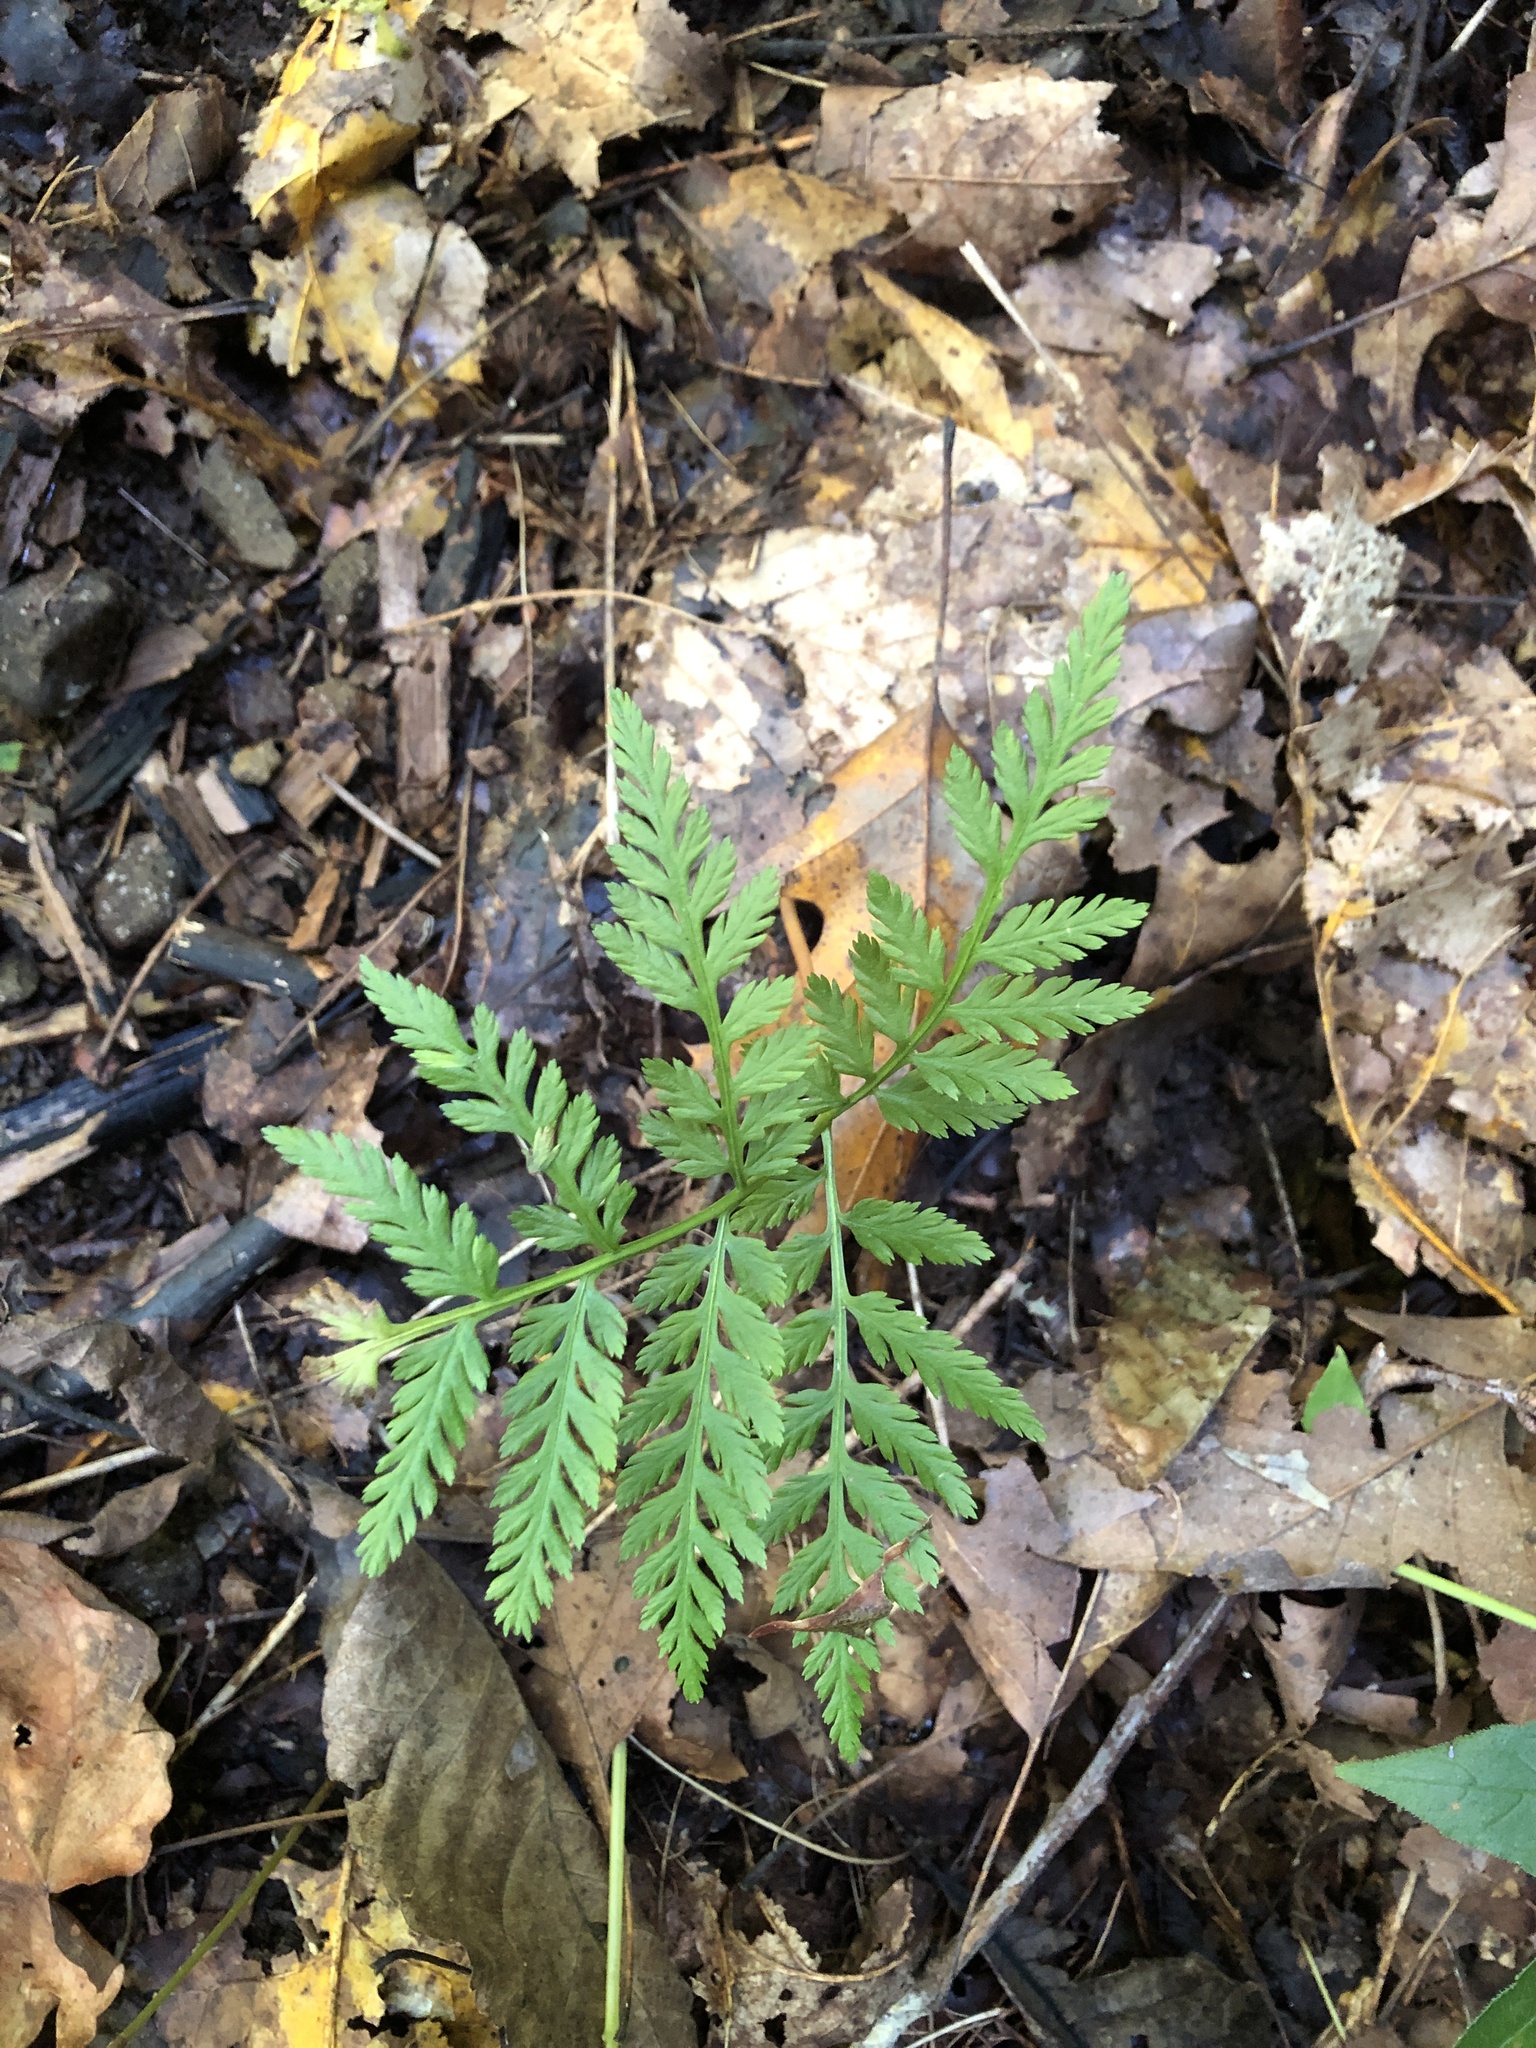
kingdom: Plantae
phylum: Tracheophyta
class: Polypodiopsida
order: Ophioglossales
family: Ophioglossaceae
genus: Botrypus
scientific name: Botrypus virginianus
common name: Common grapefern
